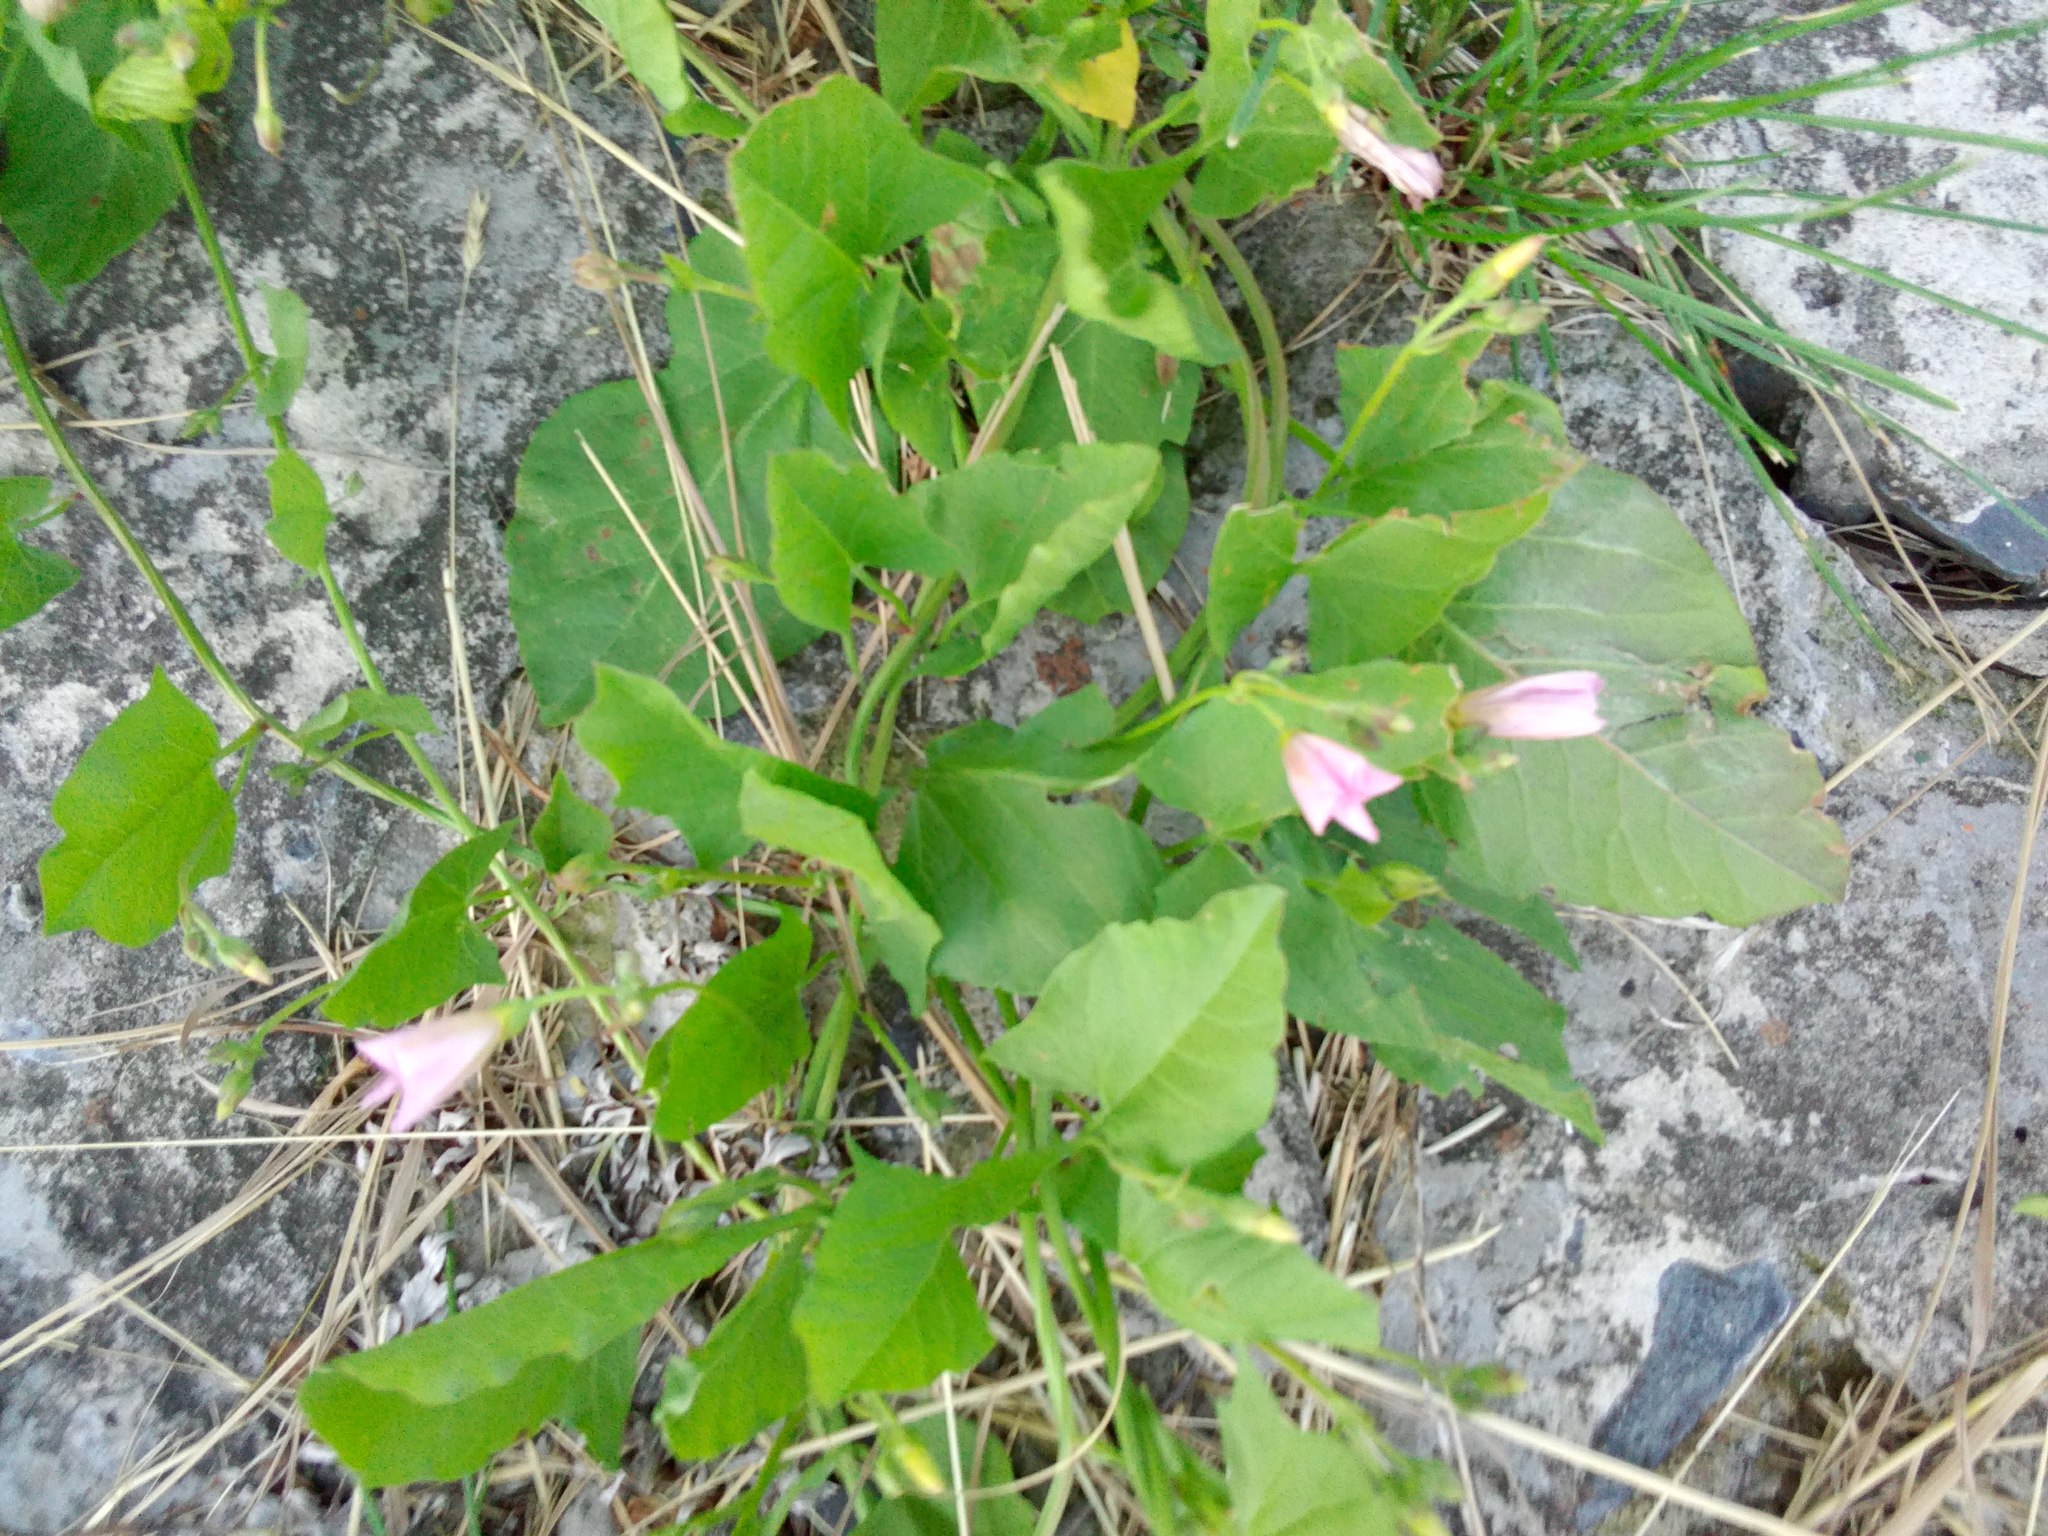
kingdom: Plantae
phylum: Tracheophyta
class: Magnoliopsida
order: Solanales
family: Convolvulaceae
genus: Convolvulus
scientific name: Convolvulus arvensis
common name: Field bindweed
